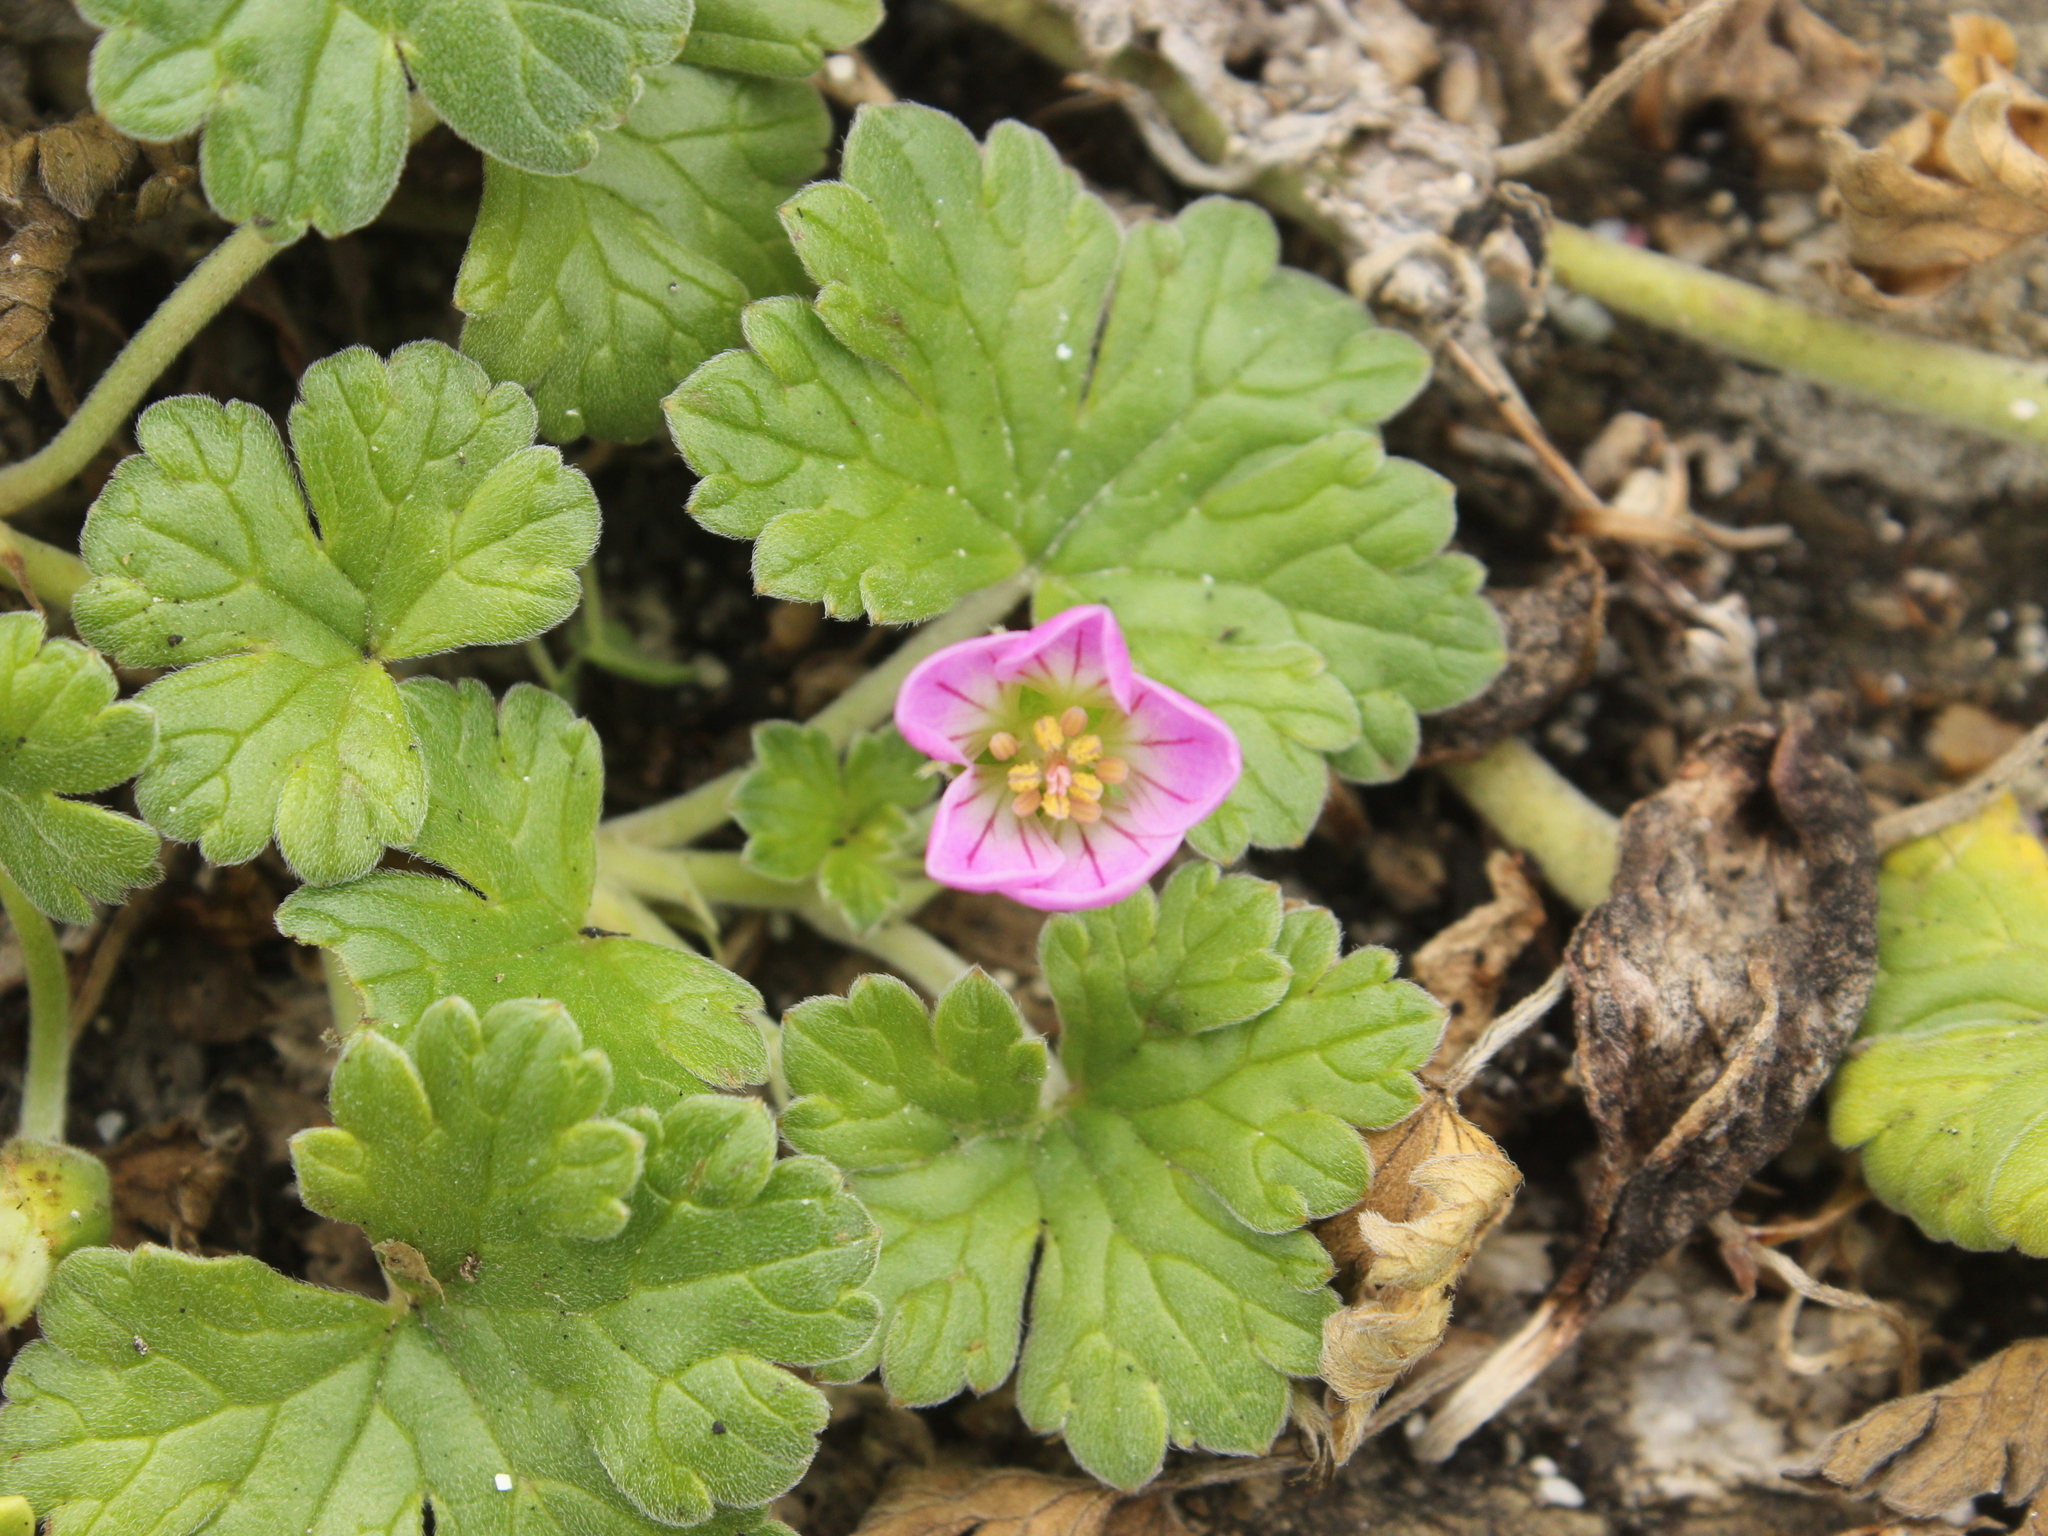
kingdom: Plantae
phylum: Tracheophyta
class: Magnoliopsida
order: Geraniales
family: Geraniaceae
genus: Geranium
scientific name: Geranium traversii
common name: Cranesbill
